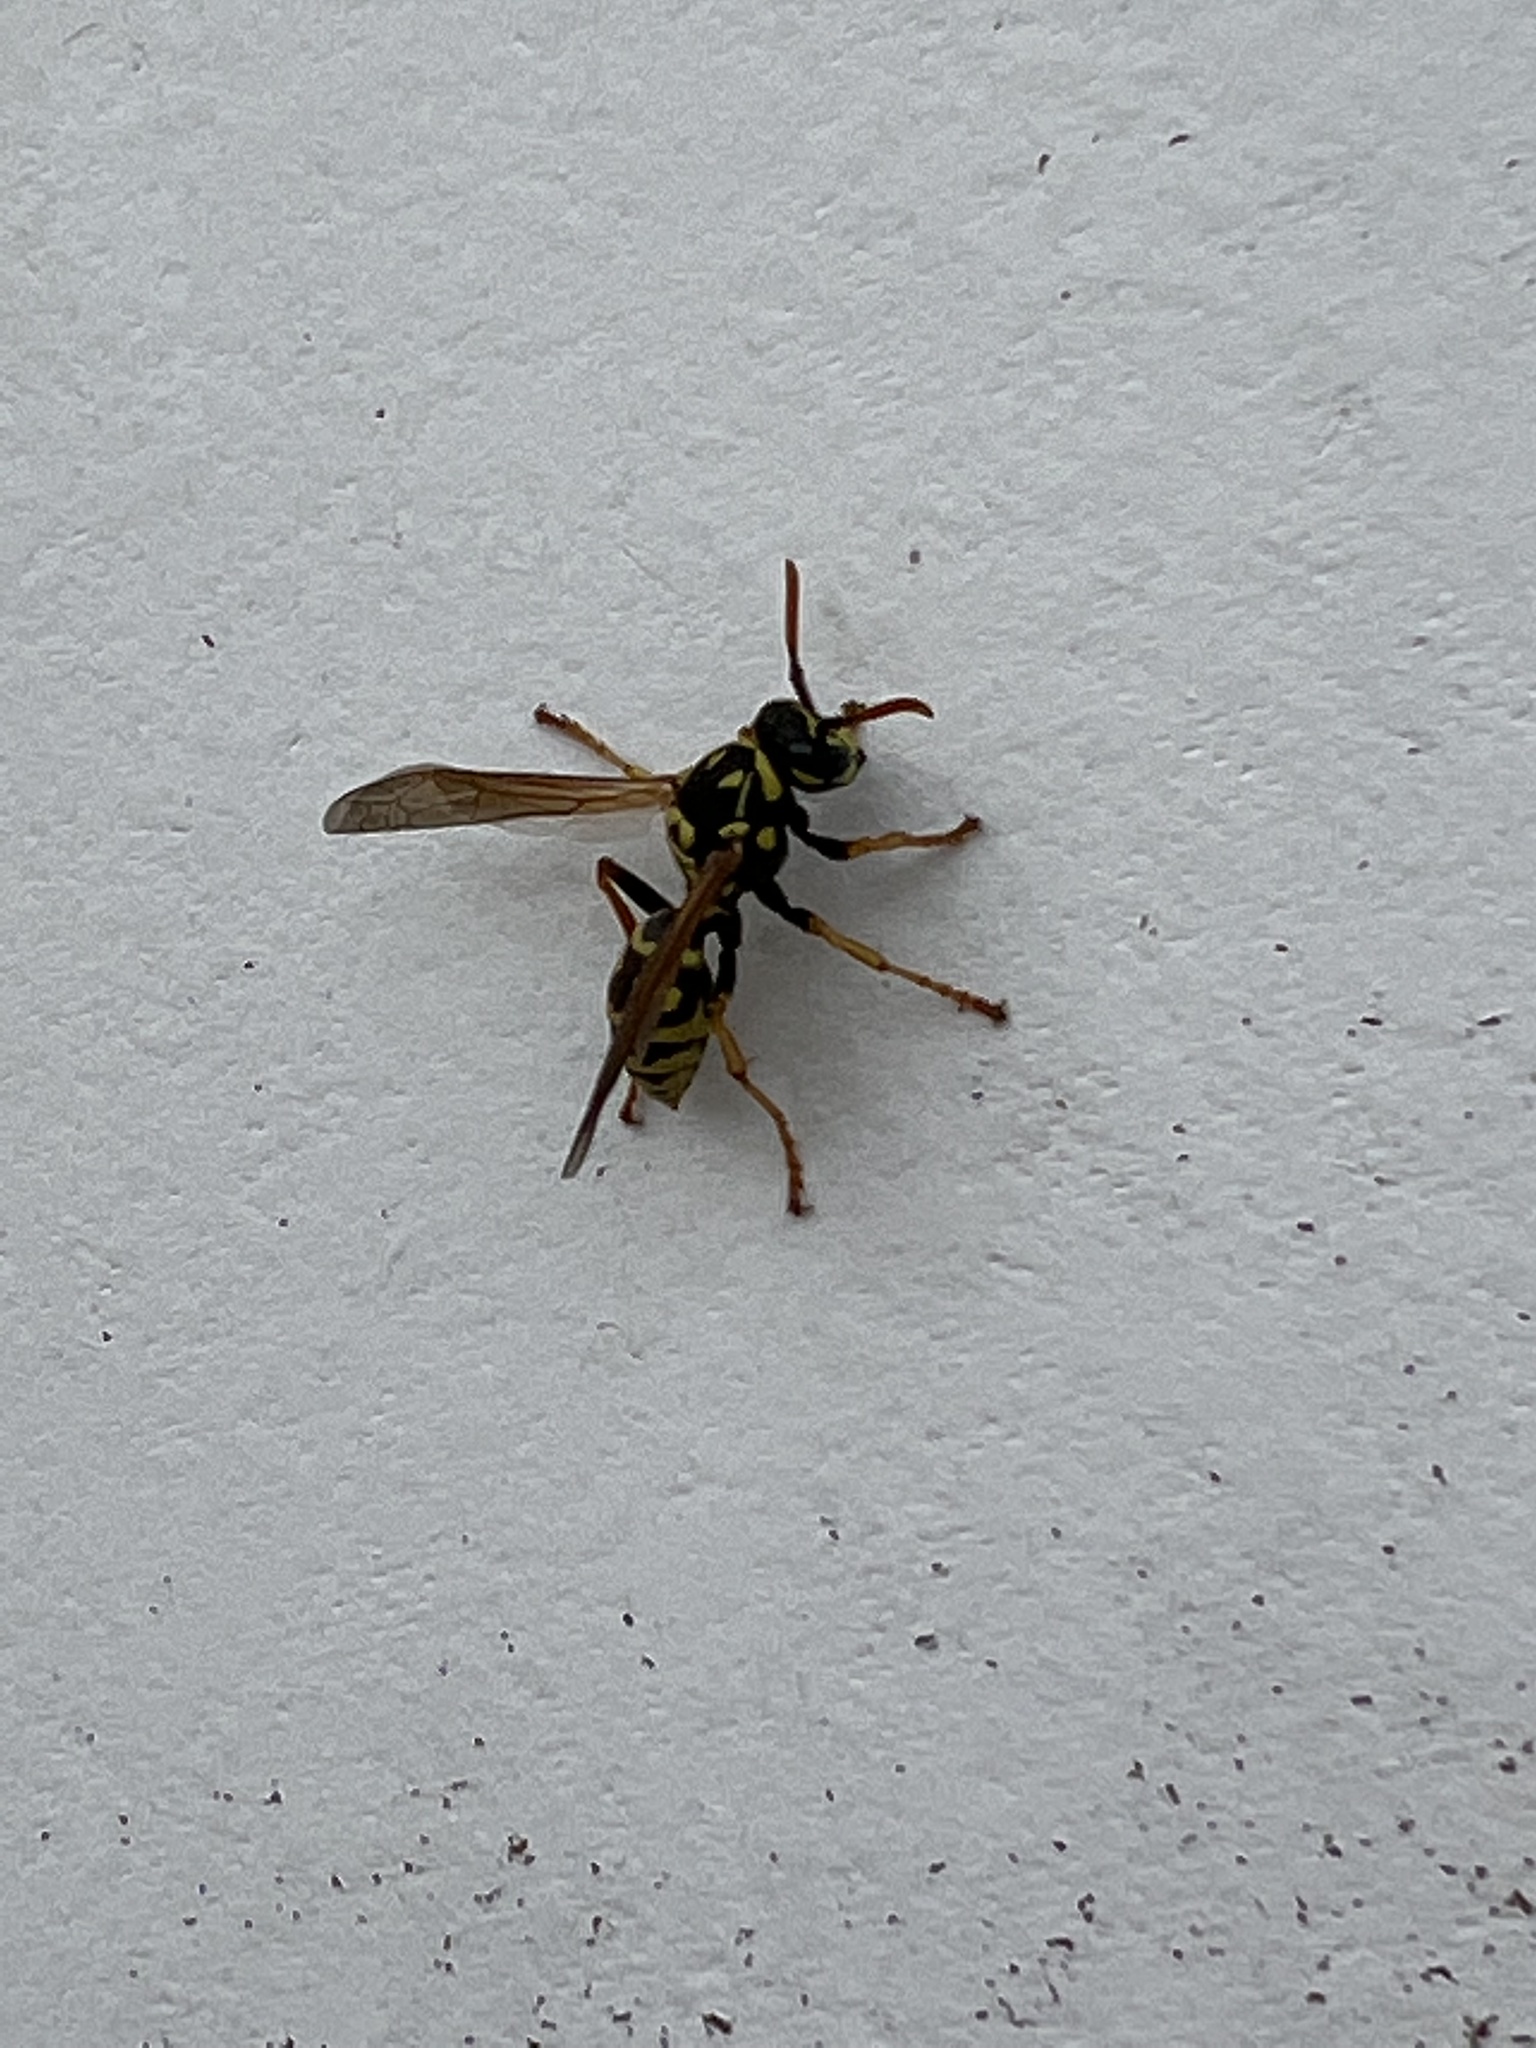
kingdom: Animalia
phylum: Arthropoda
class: Insecta
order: Hymenoptera
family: Eumenidae
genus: Polistes
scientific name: Polistes dominula
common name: Paper wasp
